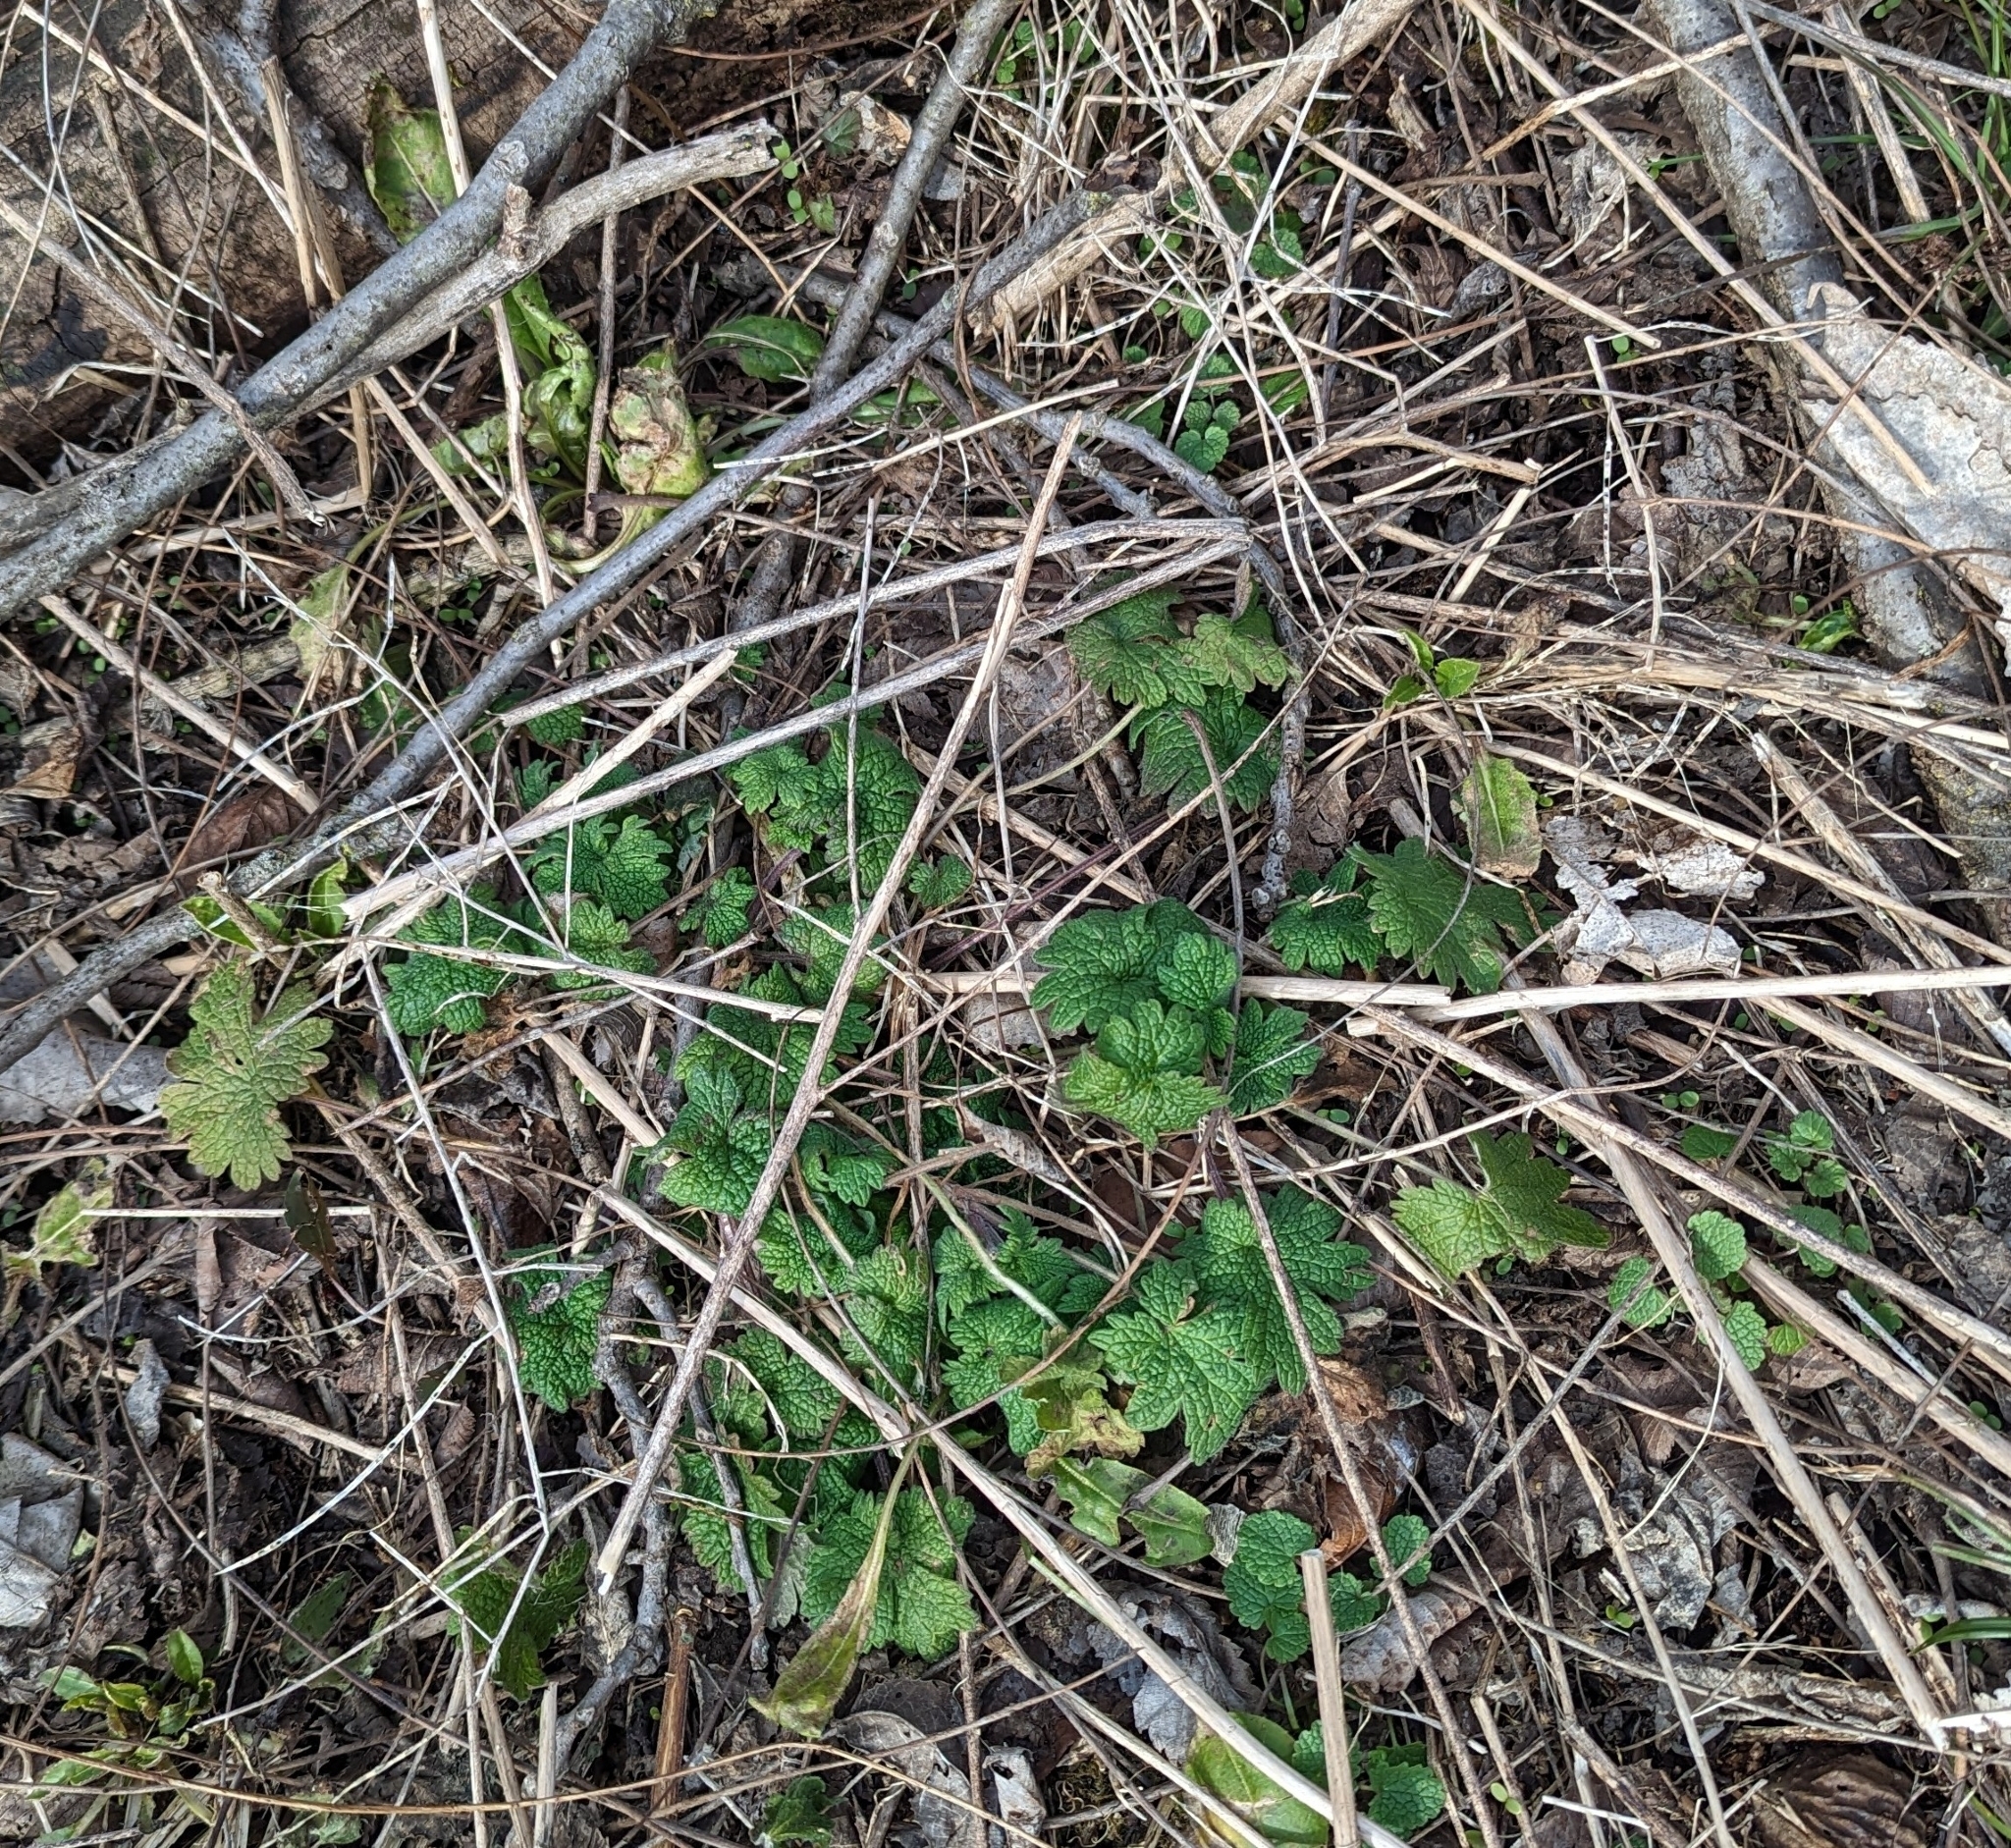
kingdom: Plantae
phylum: Tracheophyta
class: Magnoliopsida
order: Lamiales
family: Lamiaceae
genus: Leonurus
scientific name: Leonurus cardiaca
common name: Motherwort
